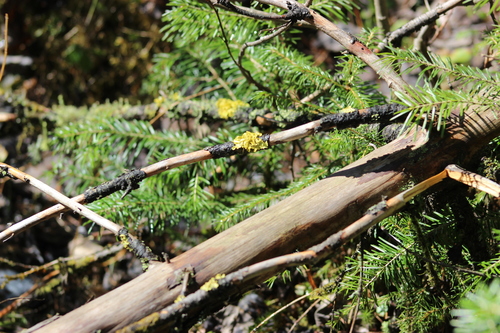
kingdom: Fungi
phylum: Ascomycota
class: Lecanoromycetes
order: Lecanorales
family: Parmeliaceae
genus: Vulpicida
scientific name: Vulpicida pinastri
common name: Powdered sunshine lichen
